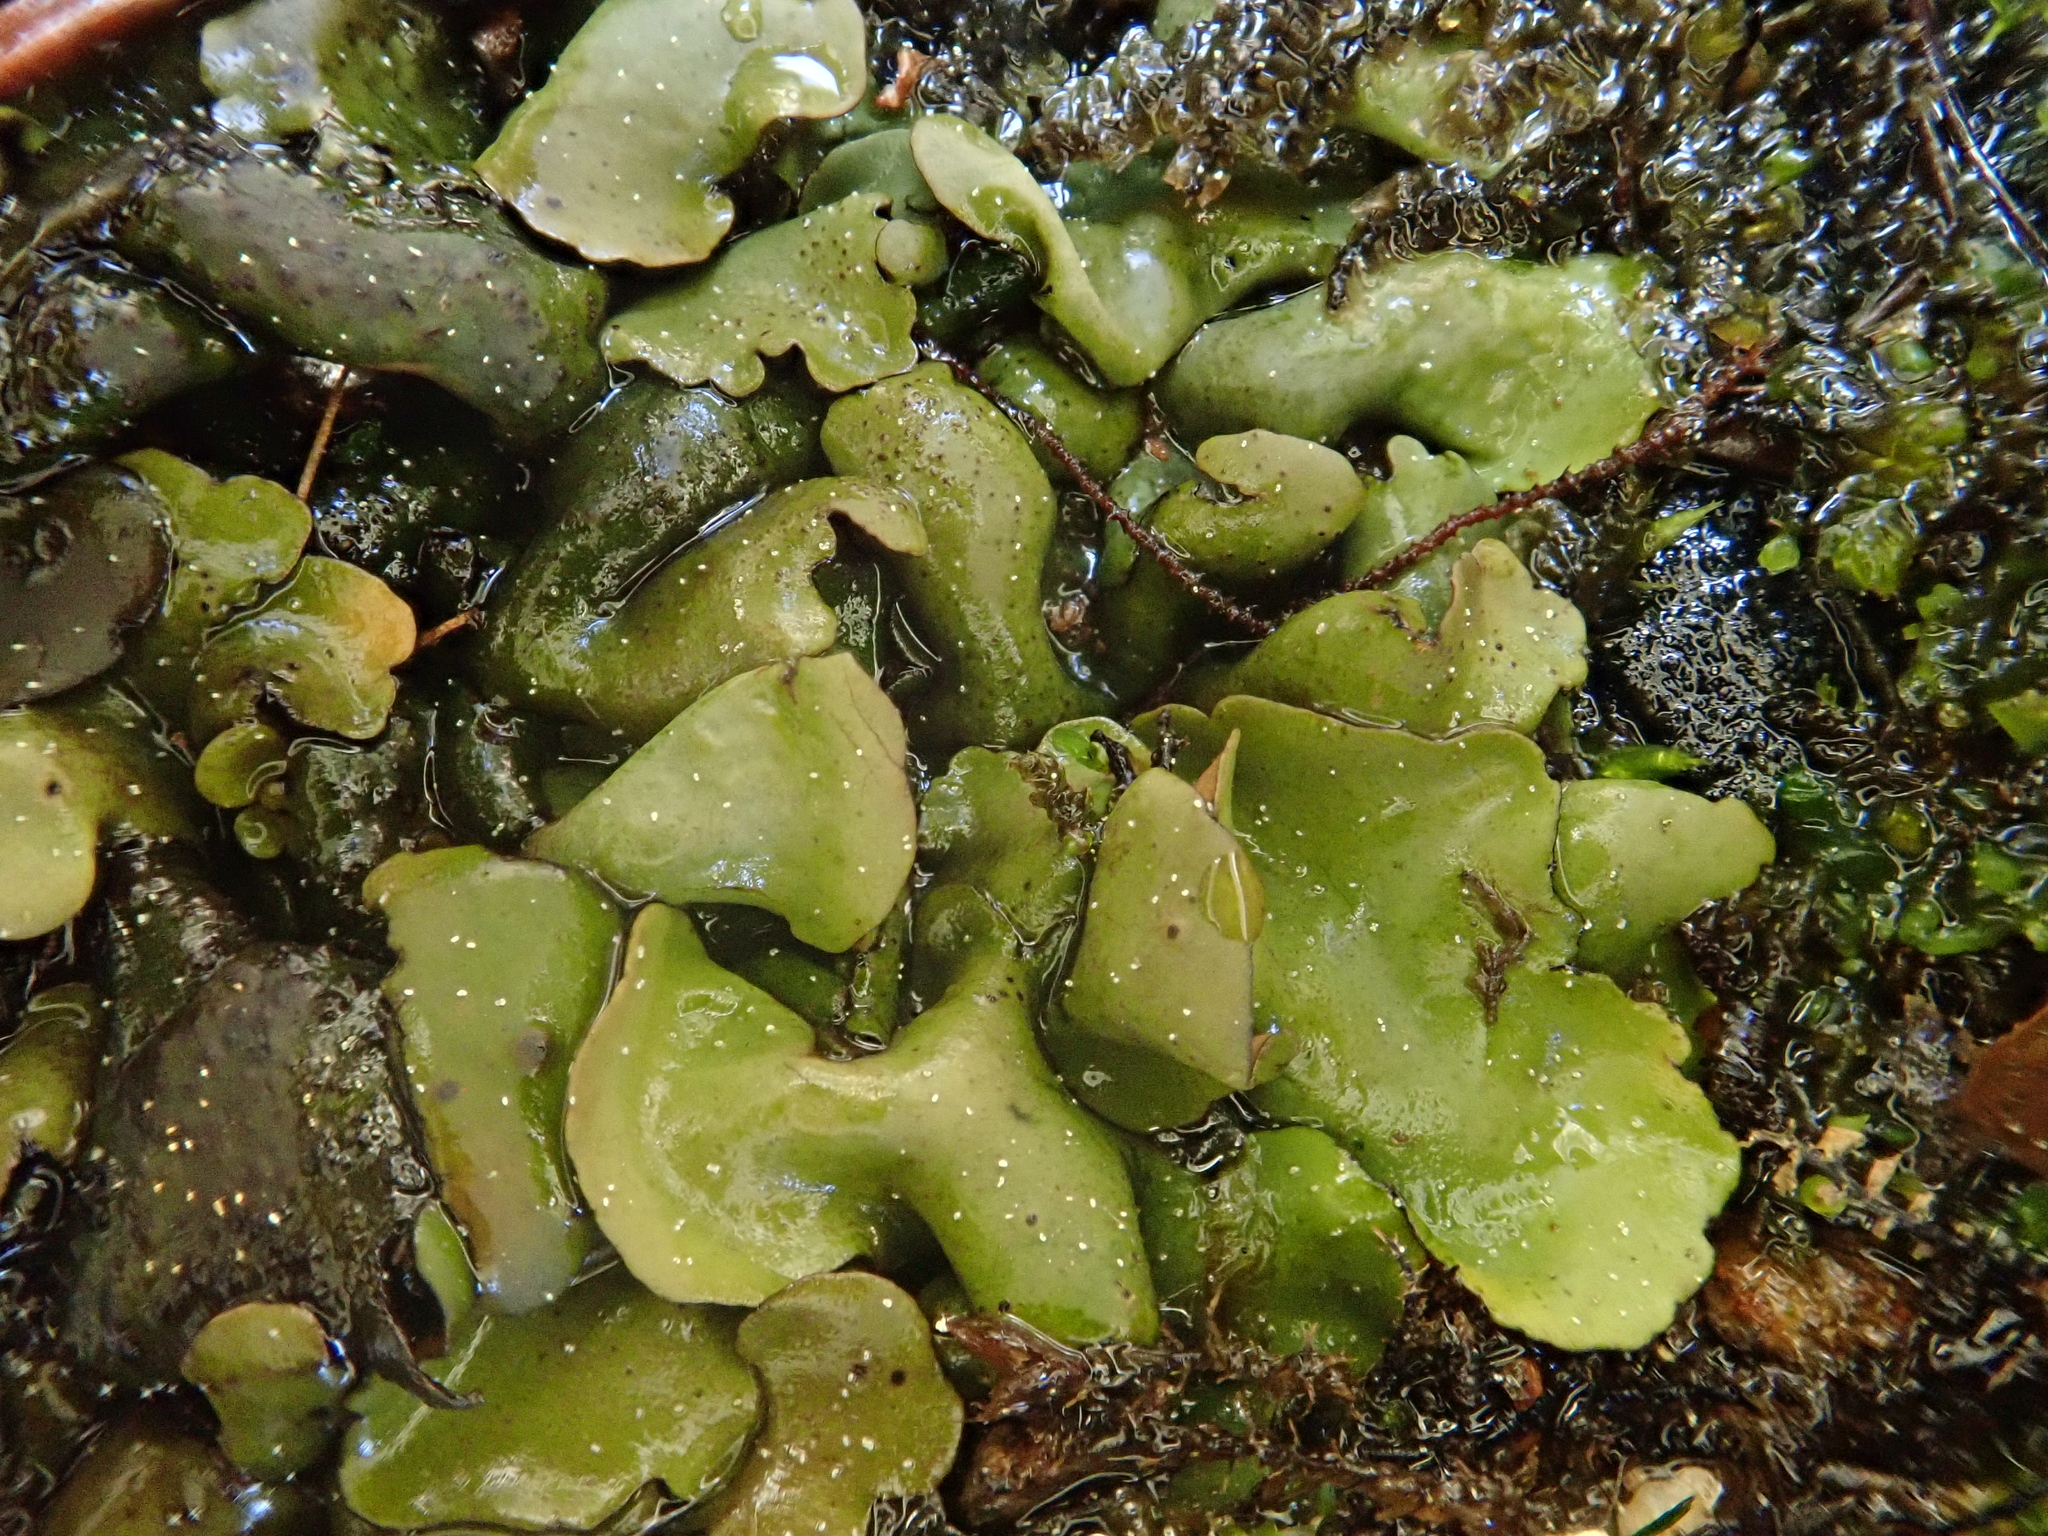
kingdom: Fungi
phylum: Ascomycota
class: Eurotiomycetes
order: Verrucariales
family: Verrucariaceae
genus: Dermatocarpon
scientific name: Dermatocarpon luridum
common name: Brook stippleback lichen
